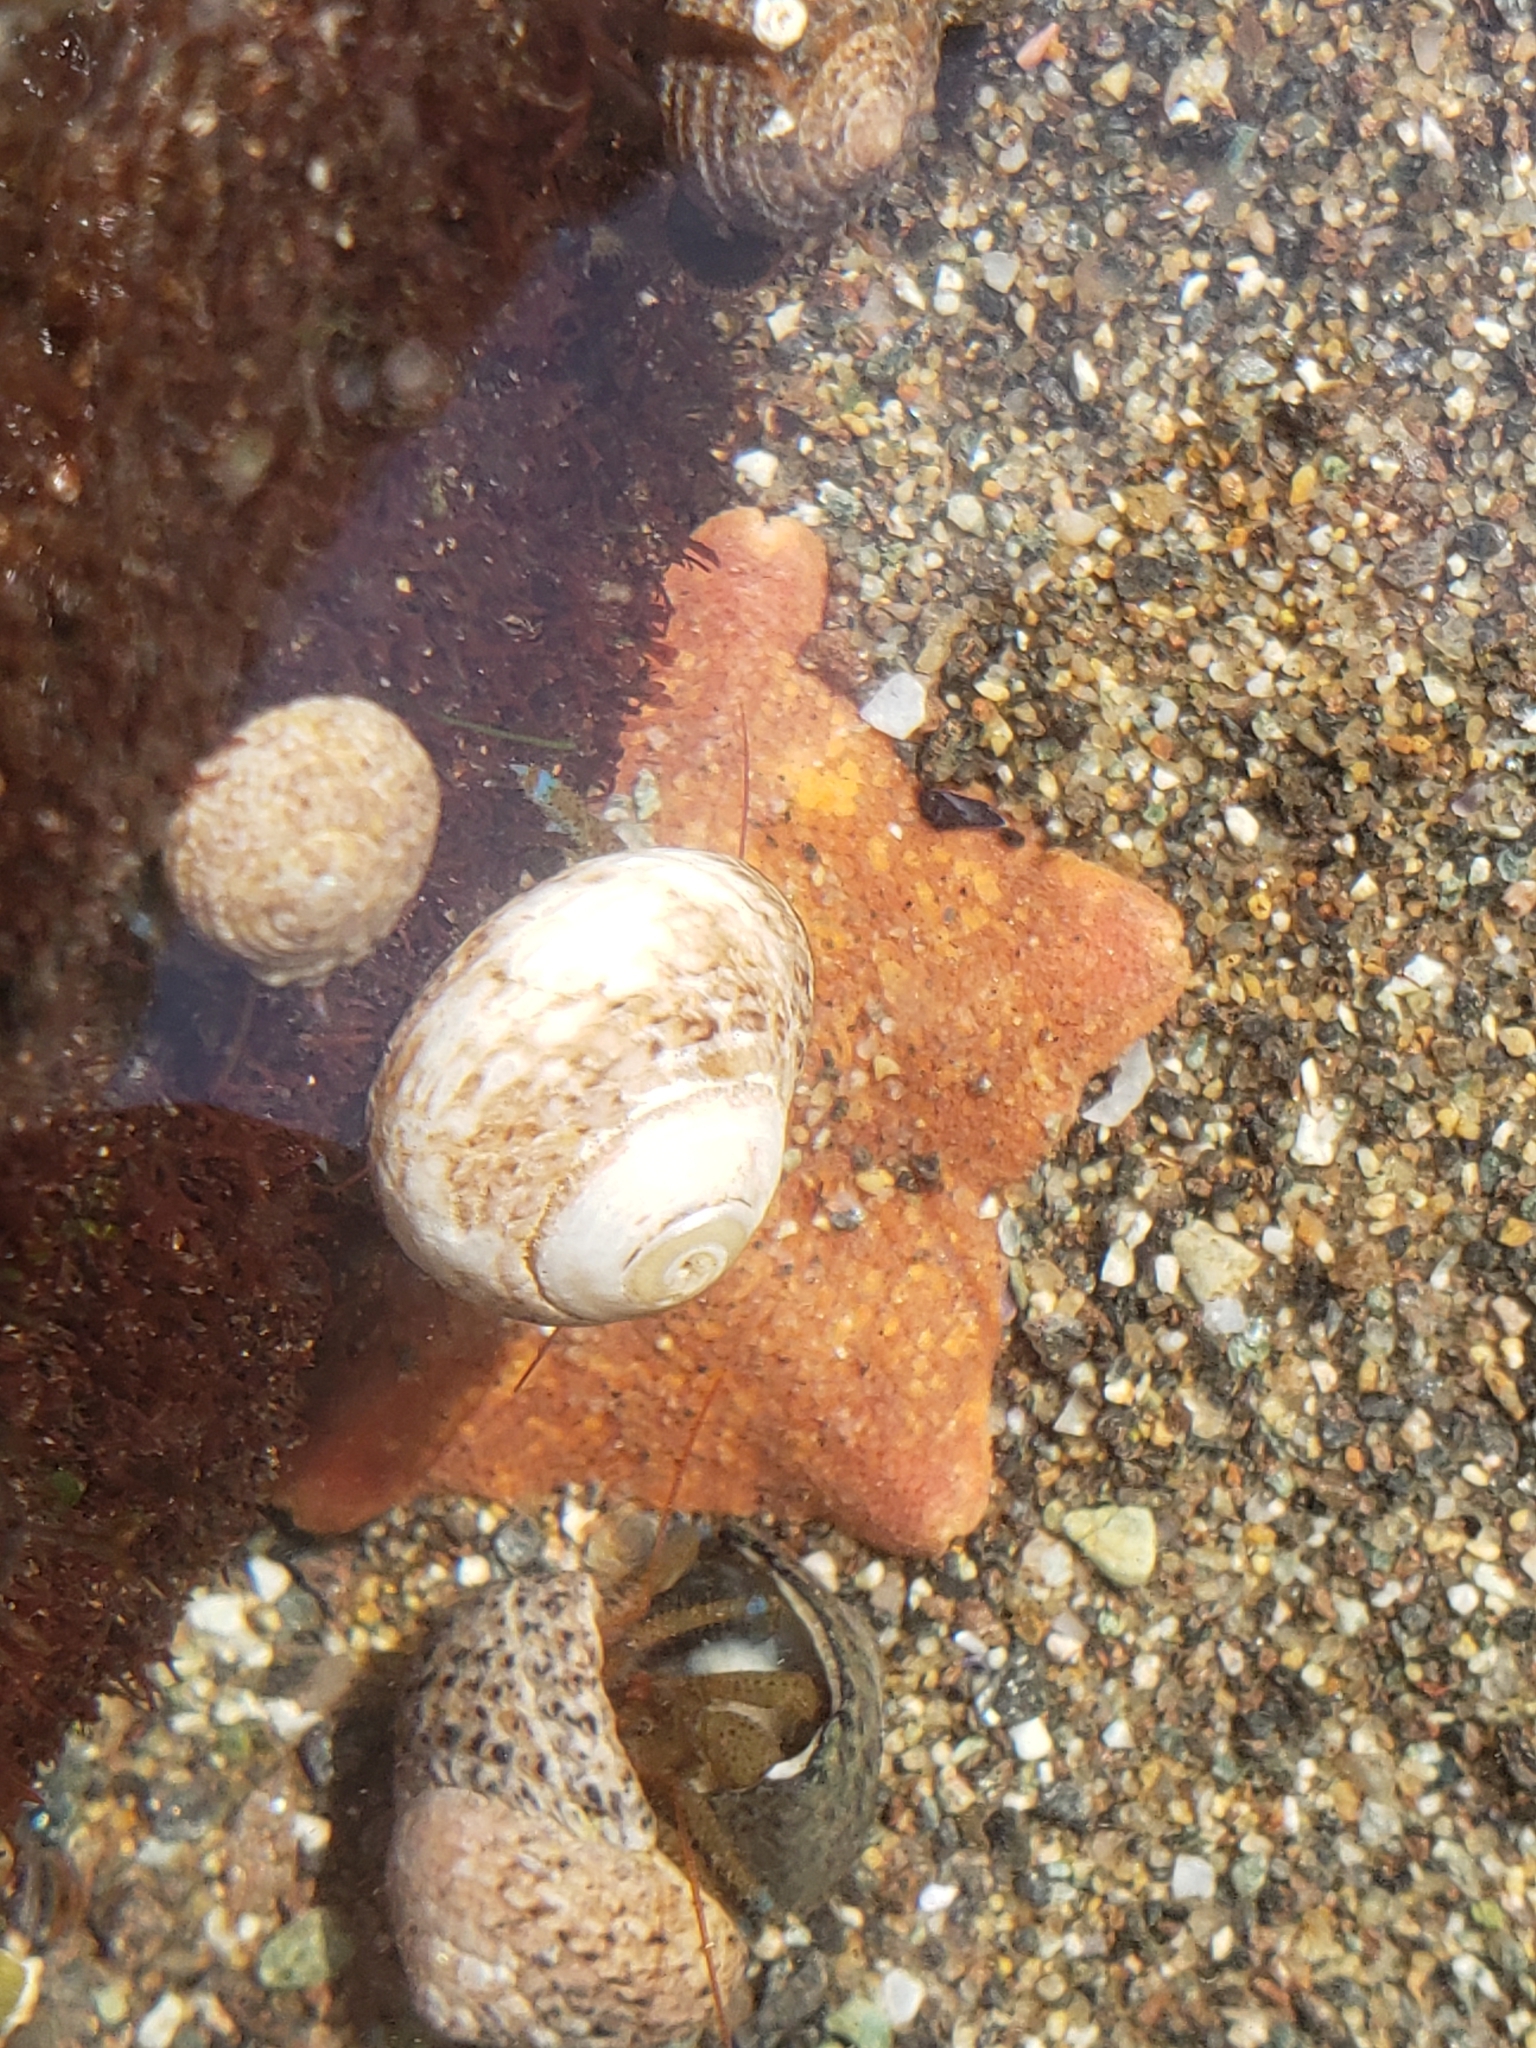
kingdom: Animalia
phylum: Echinodermata
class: Asteroidea
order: Valvatida
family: Asterinidae
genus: Patiria
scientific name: Patiria miniata
